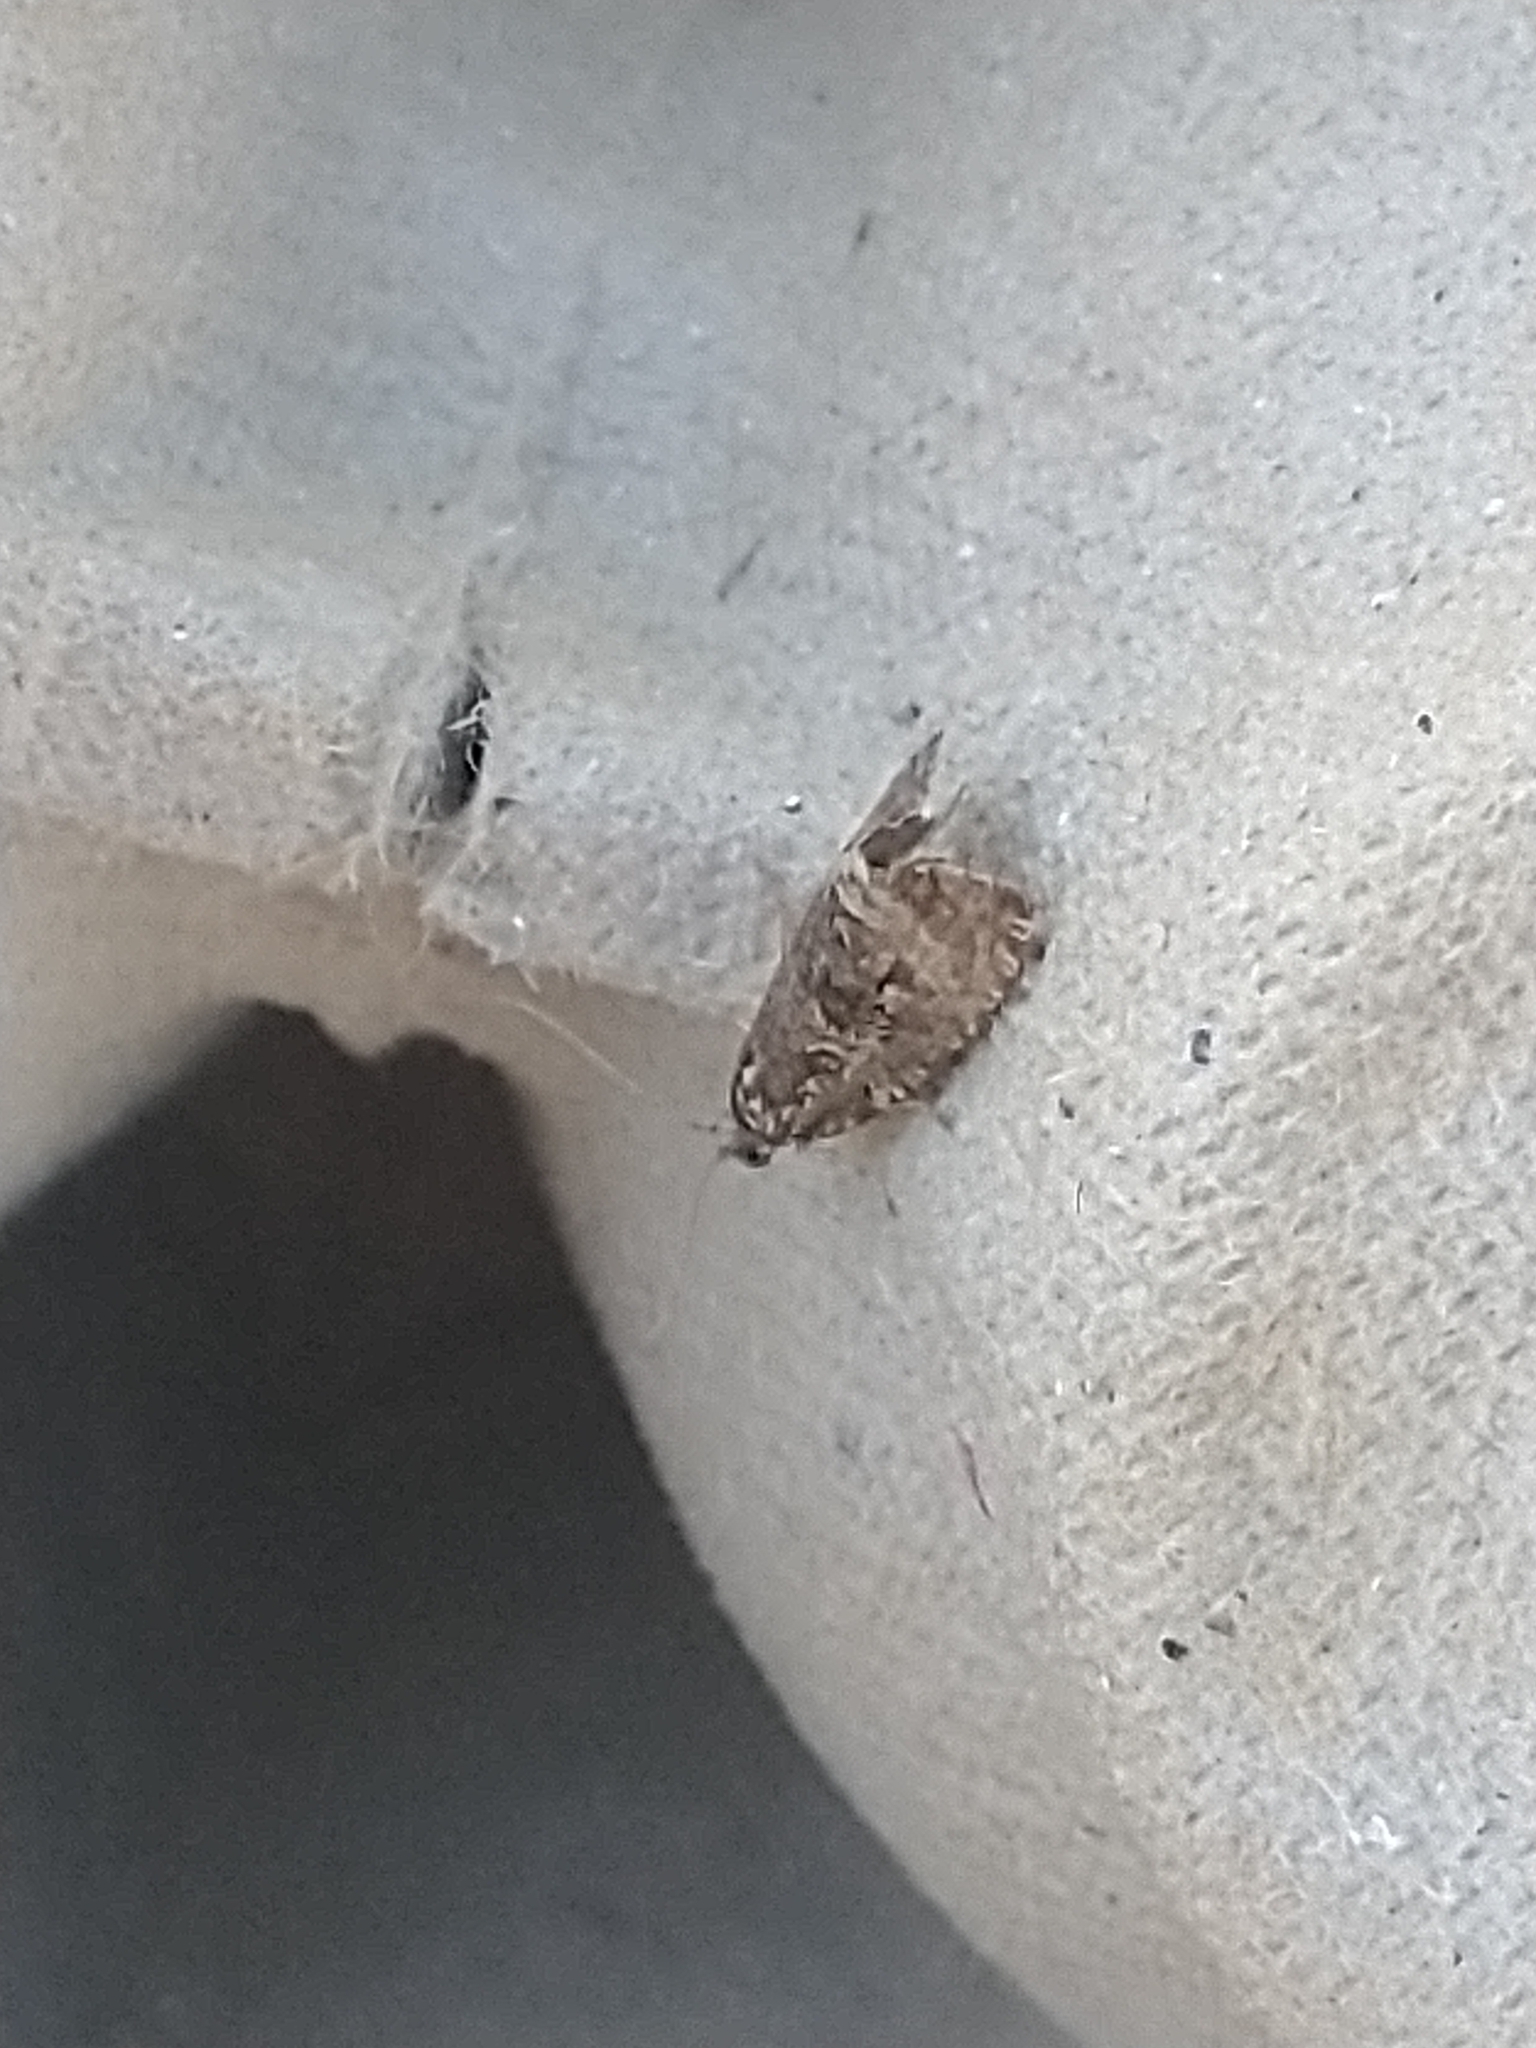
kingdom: Animalia
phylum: Arthropoda
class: Insecta
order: Lepidoptera
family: Tortricidae
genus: Syricoris
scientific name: Syricoris lacunana
